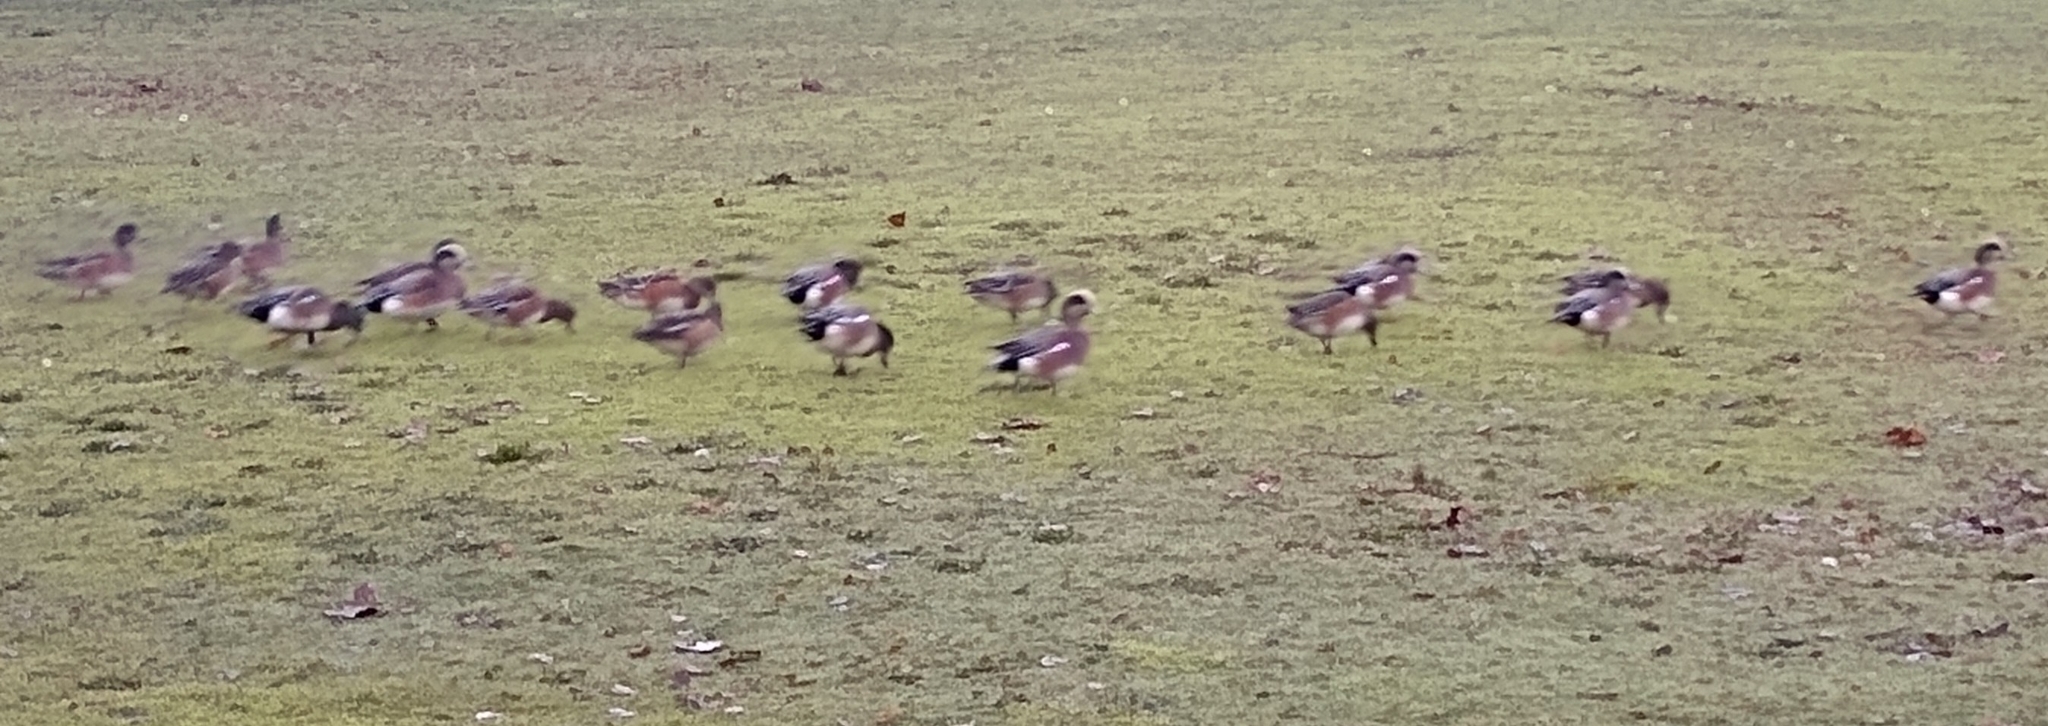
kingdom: Animalia
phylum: Chordata
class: Aves
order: Anseriformes
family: Anatidae
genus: Mareca
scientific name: Mareca americana
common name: American wigeon
